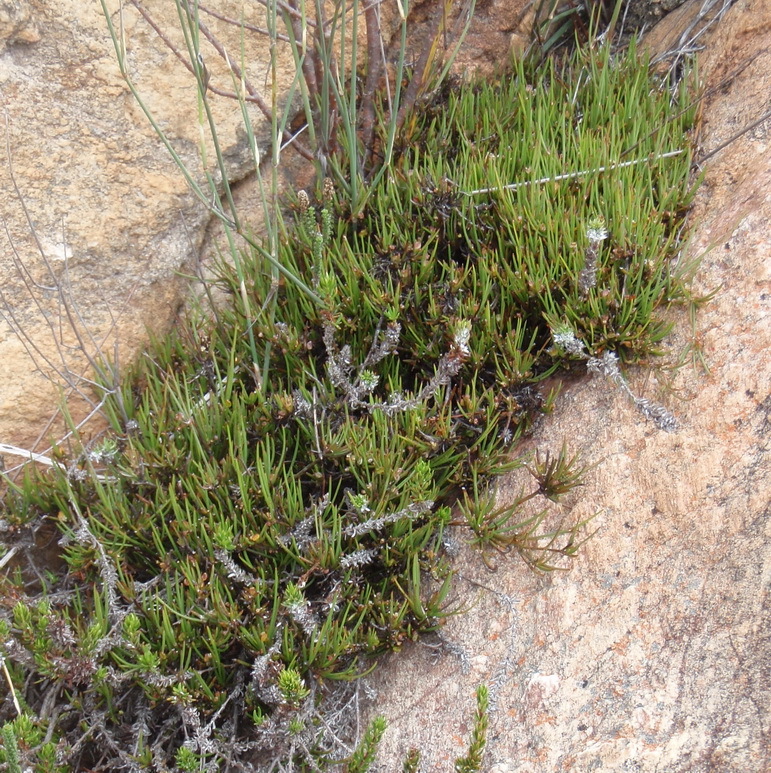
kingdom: Plantae
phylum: Tracheophyta
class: Magnoliopsida
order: Apiales
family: Apiaceae
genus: Centella
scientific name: Centella stenophylla
